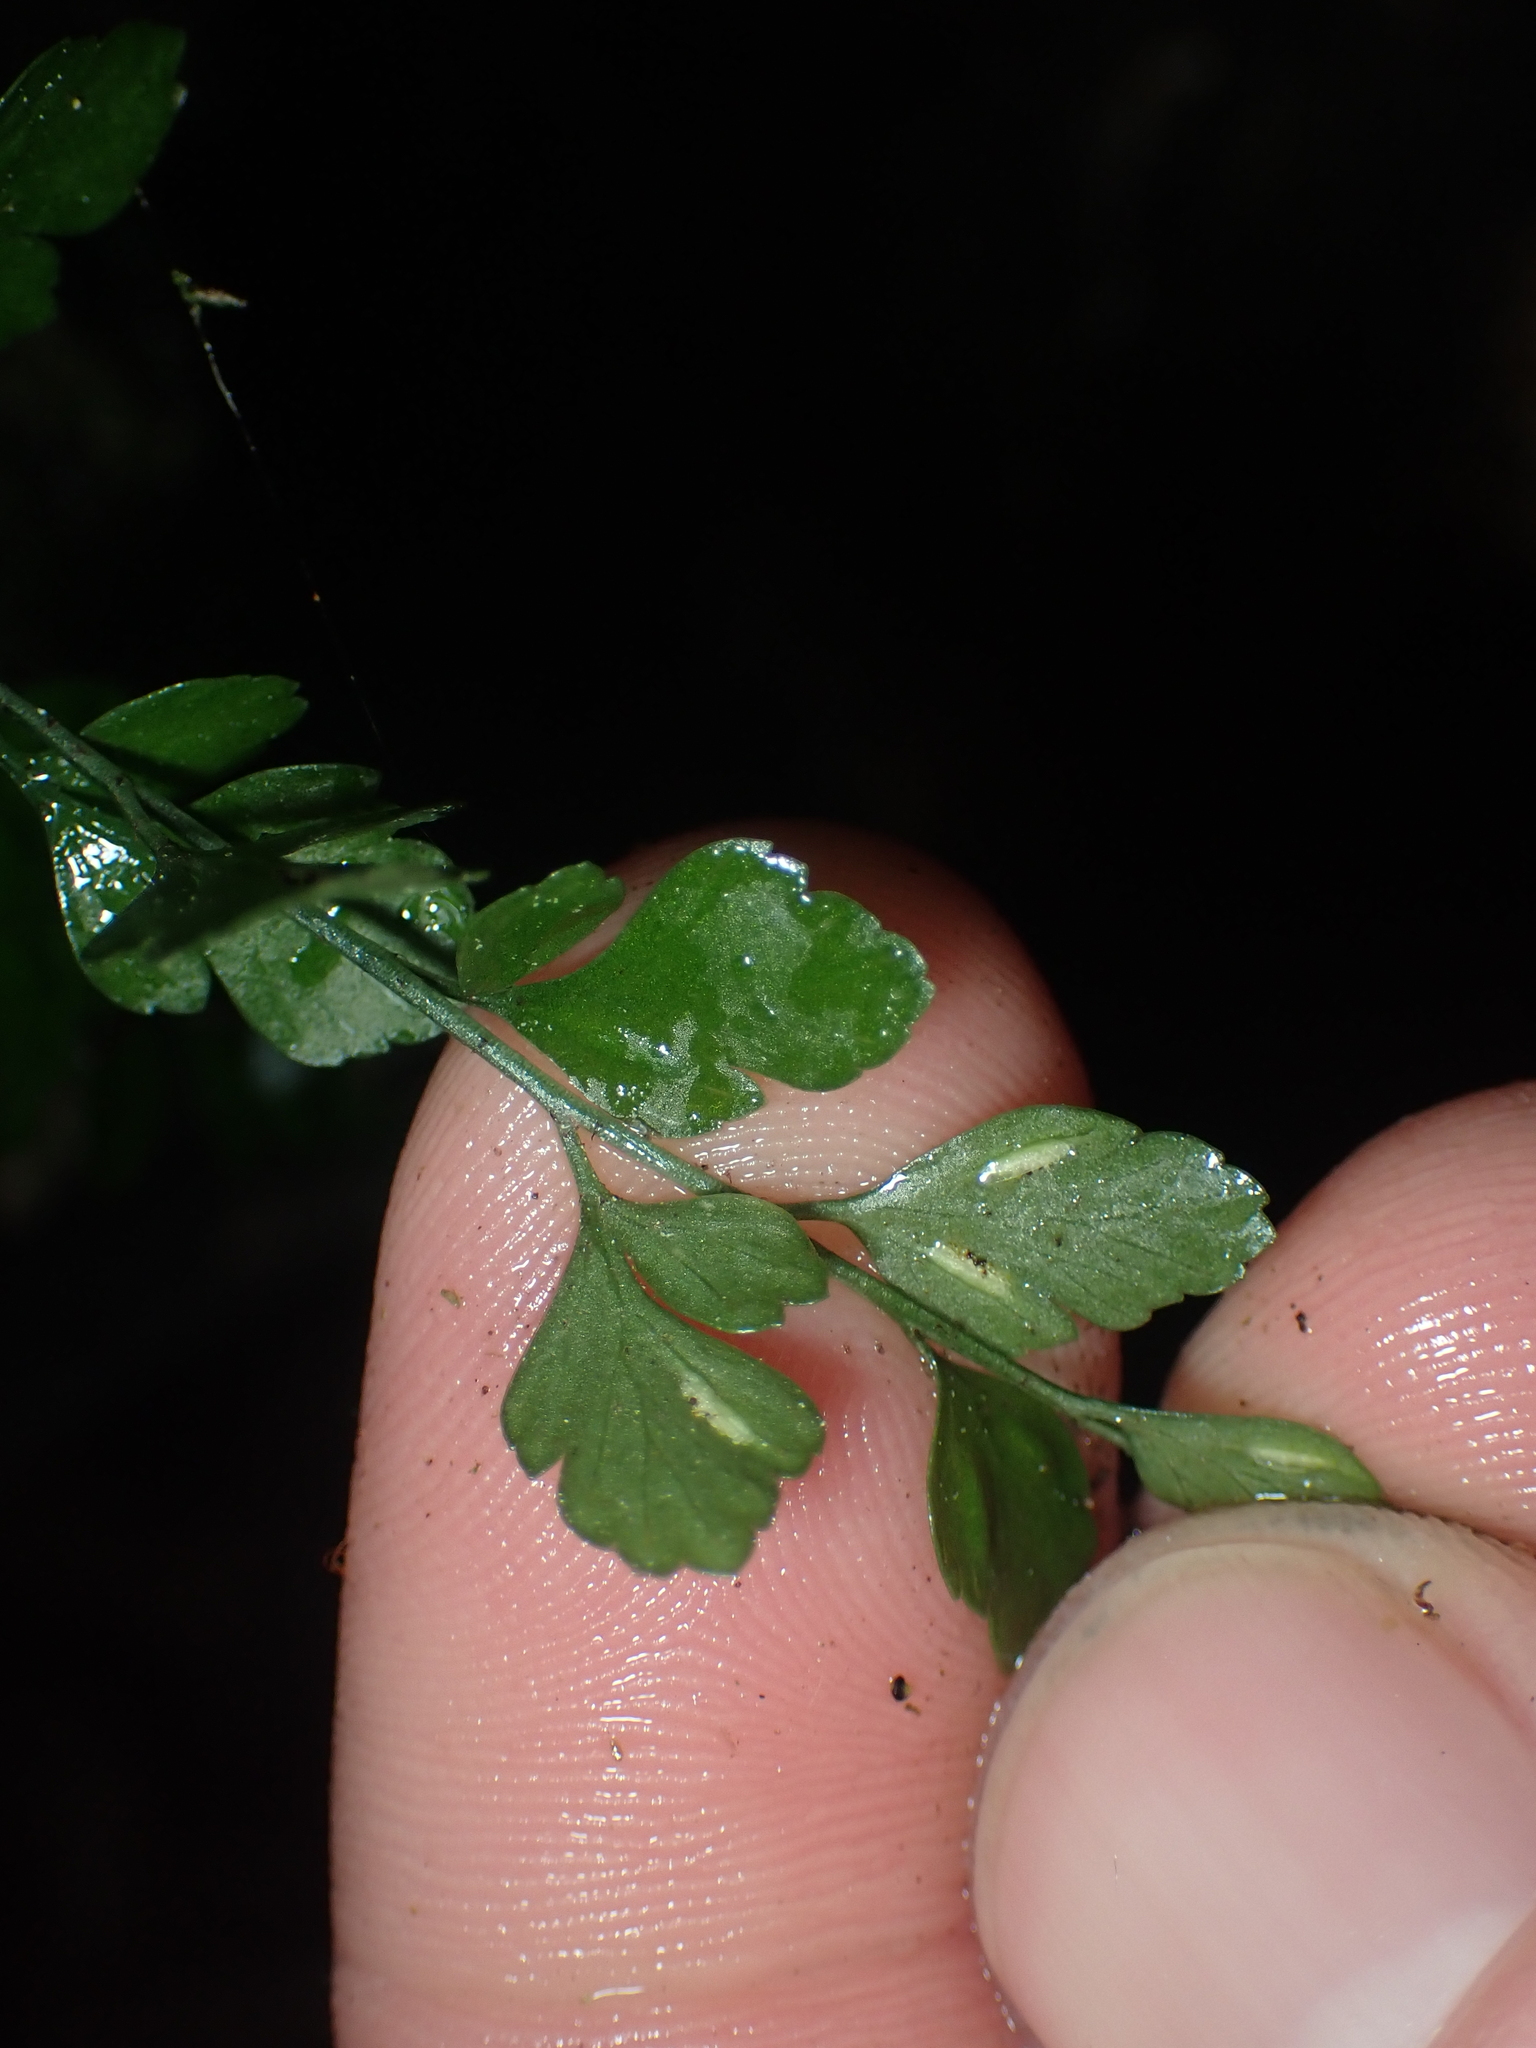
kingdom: Plantae
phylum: Tracheophyta
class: Polypodiopsida
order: Polypodiales
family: Aspleniaceae
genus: Asplenium
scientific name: Asplenium hookerianum
